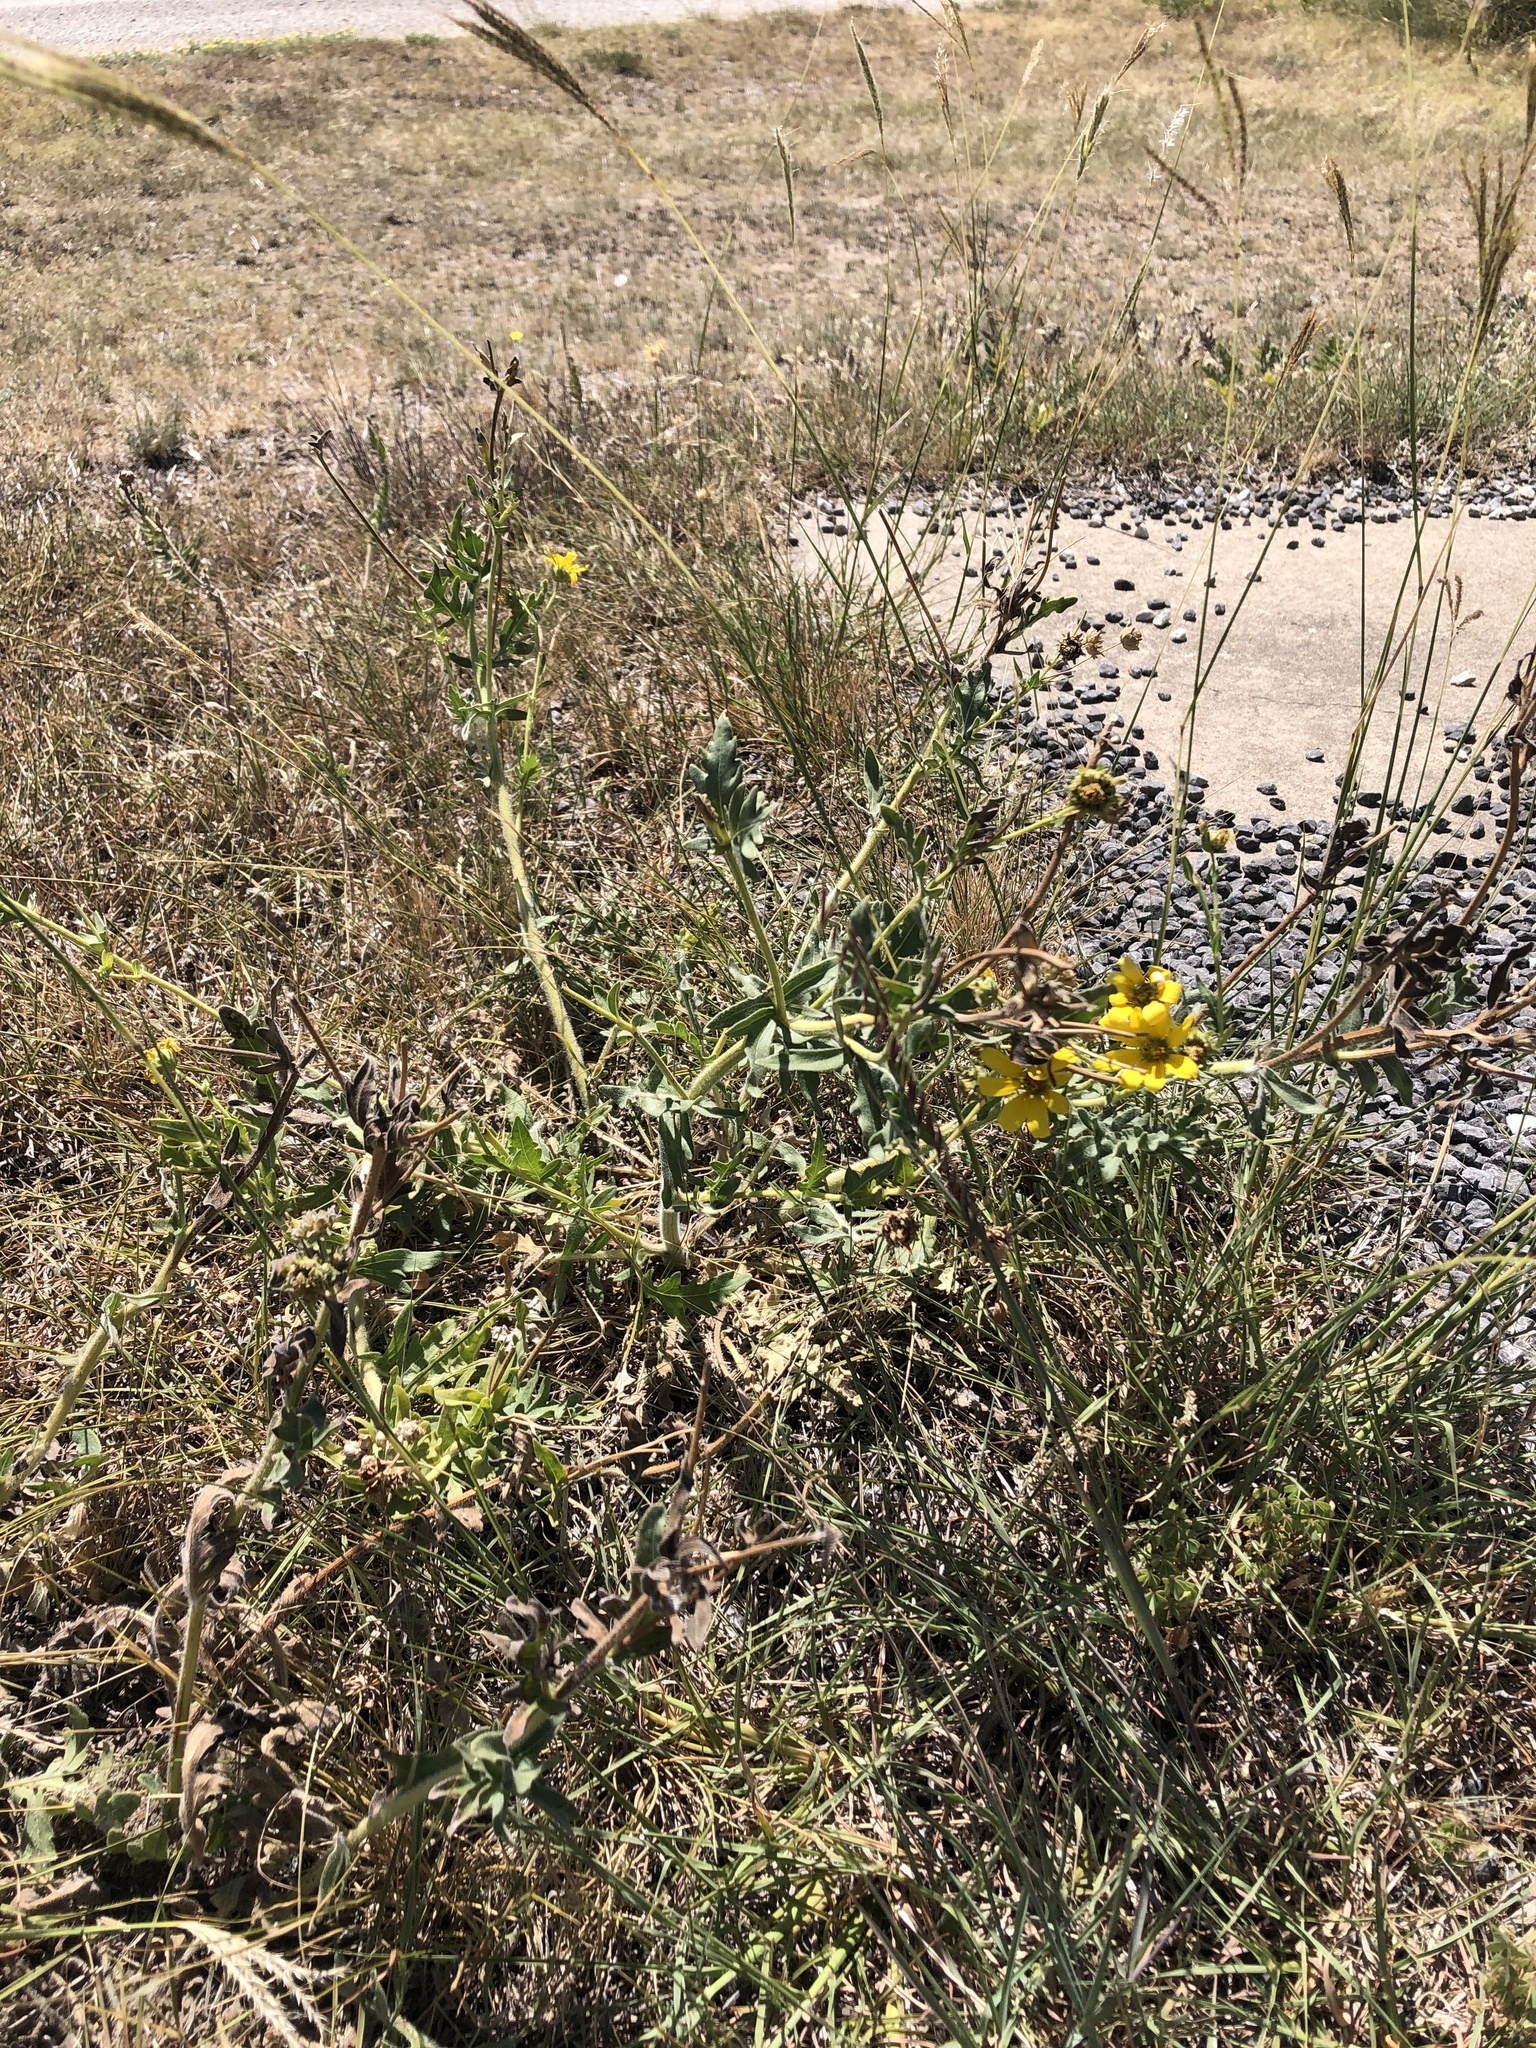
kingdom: Plantae
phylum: Tracheophyta
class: Magnoliopsida
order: Asterales
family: Asteraceae
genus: Engelmannia
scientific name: Engelmannia peristenia
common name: Engelmann's daisy
